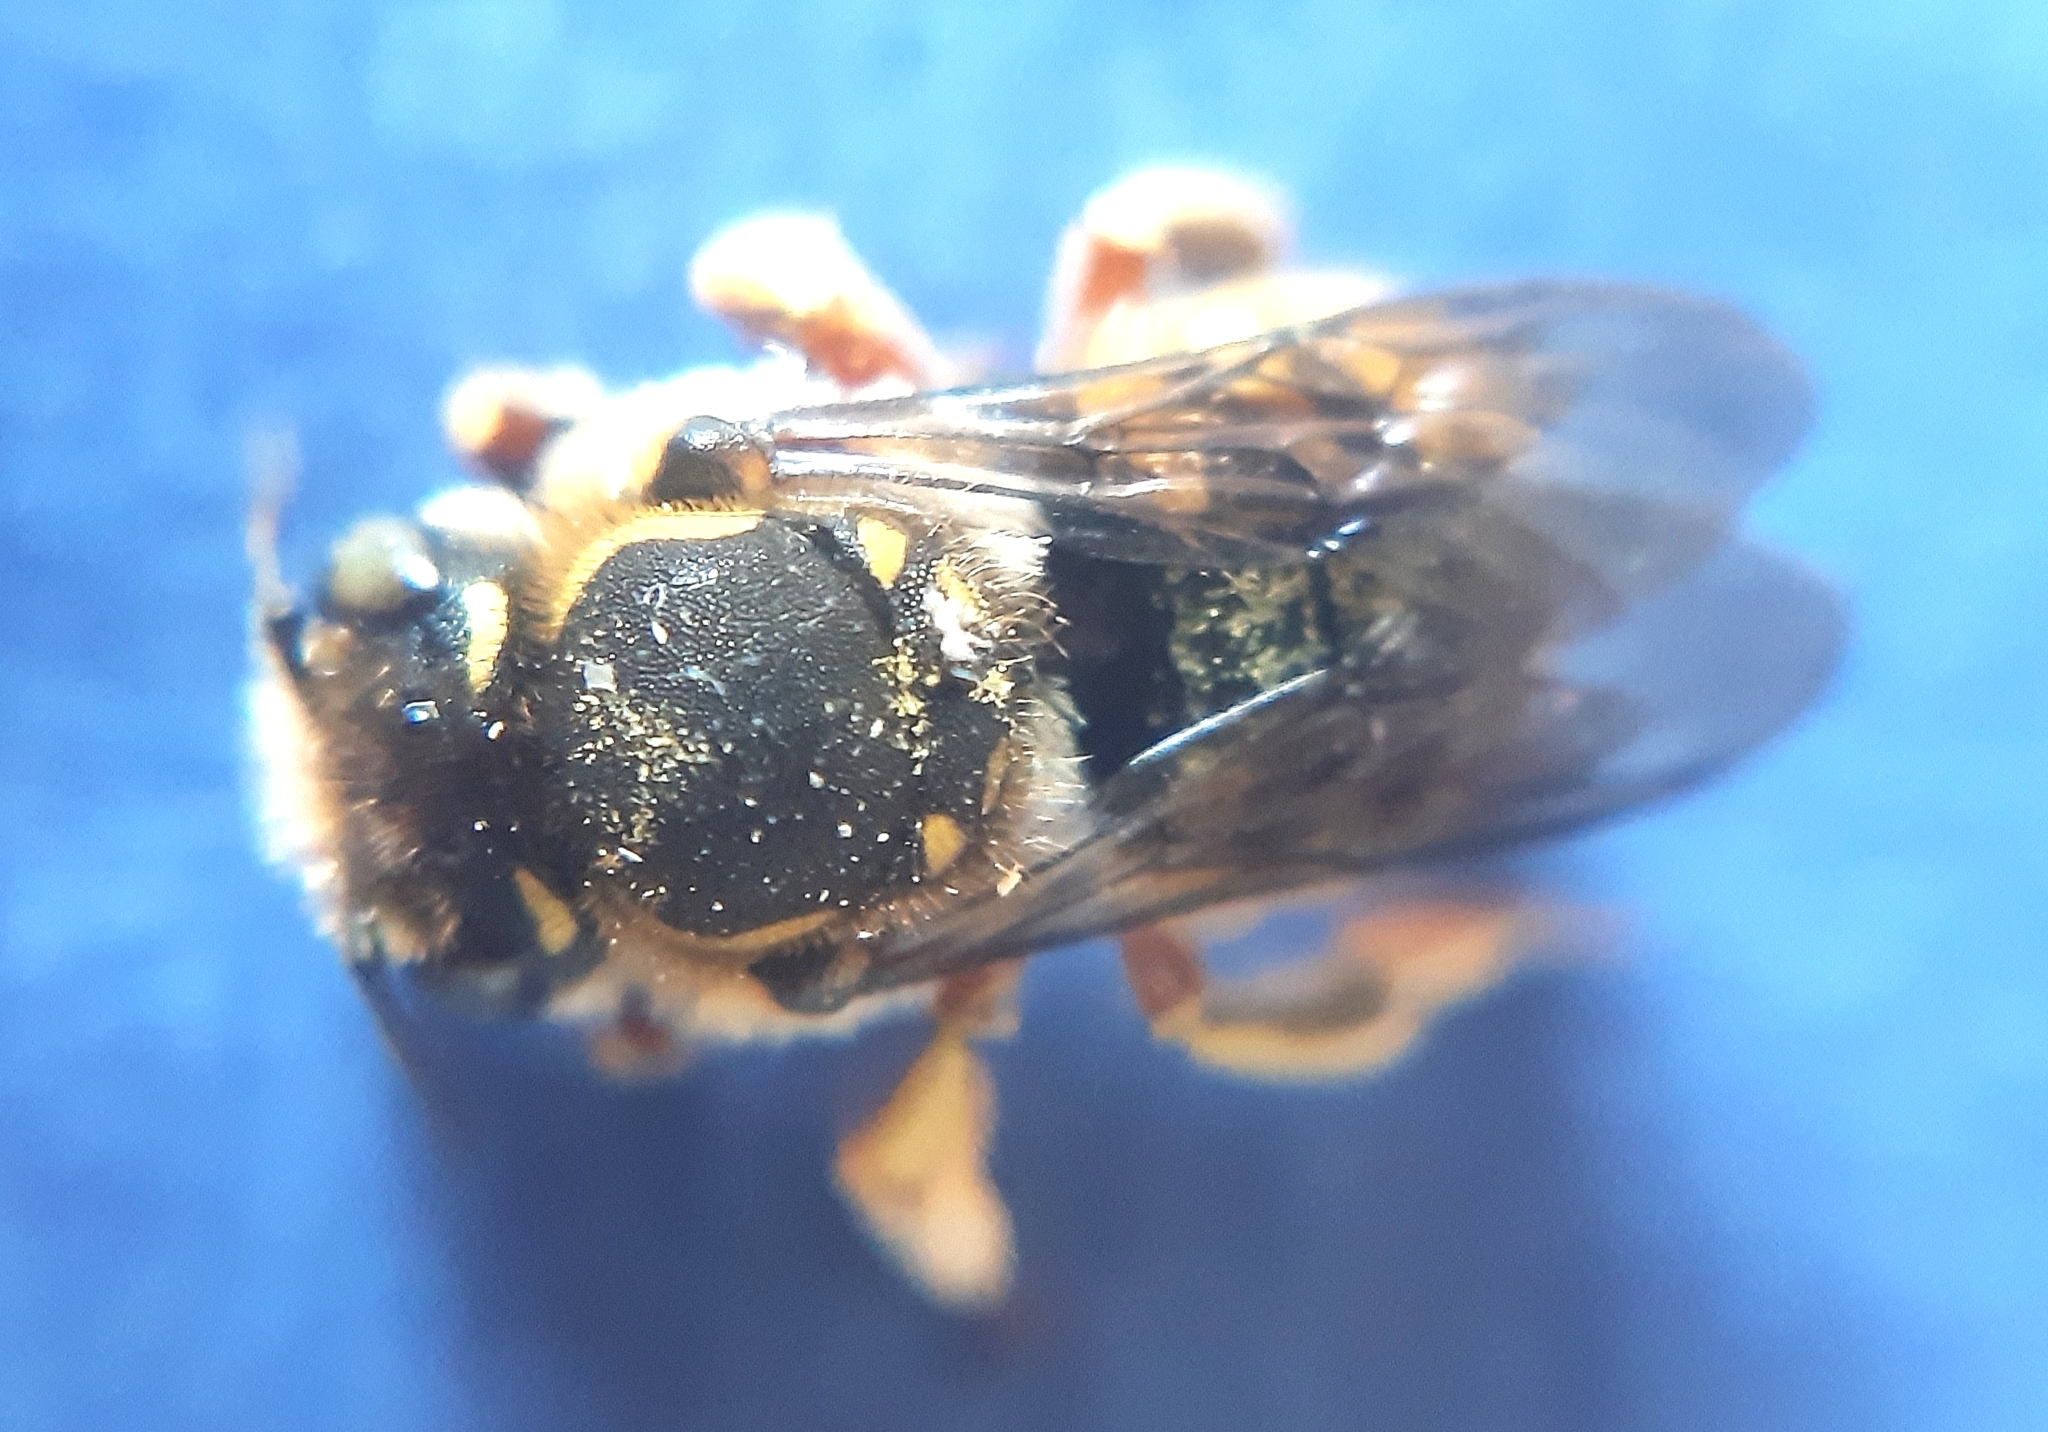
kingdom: Animalia
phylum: Arthropoda
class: Insecta
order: Hymenoptera
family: Megachilidae
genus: Anthidium
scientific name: Anthidium manicatum
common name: Wool carder bee
